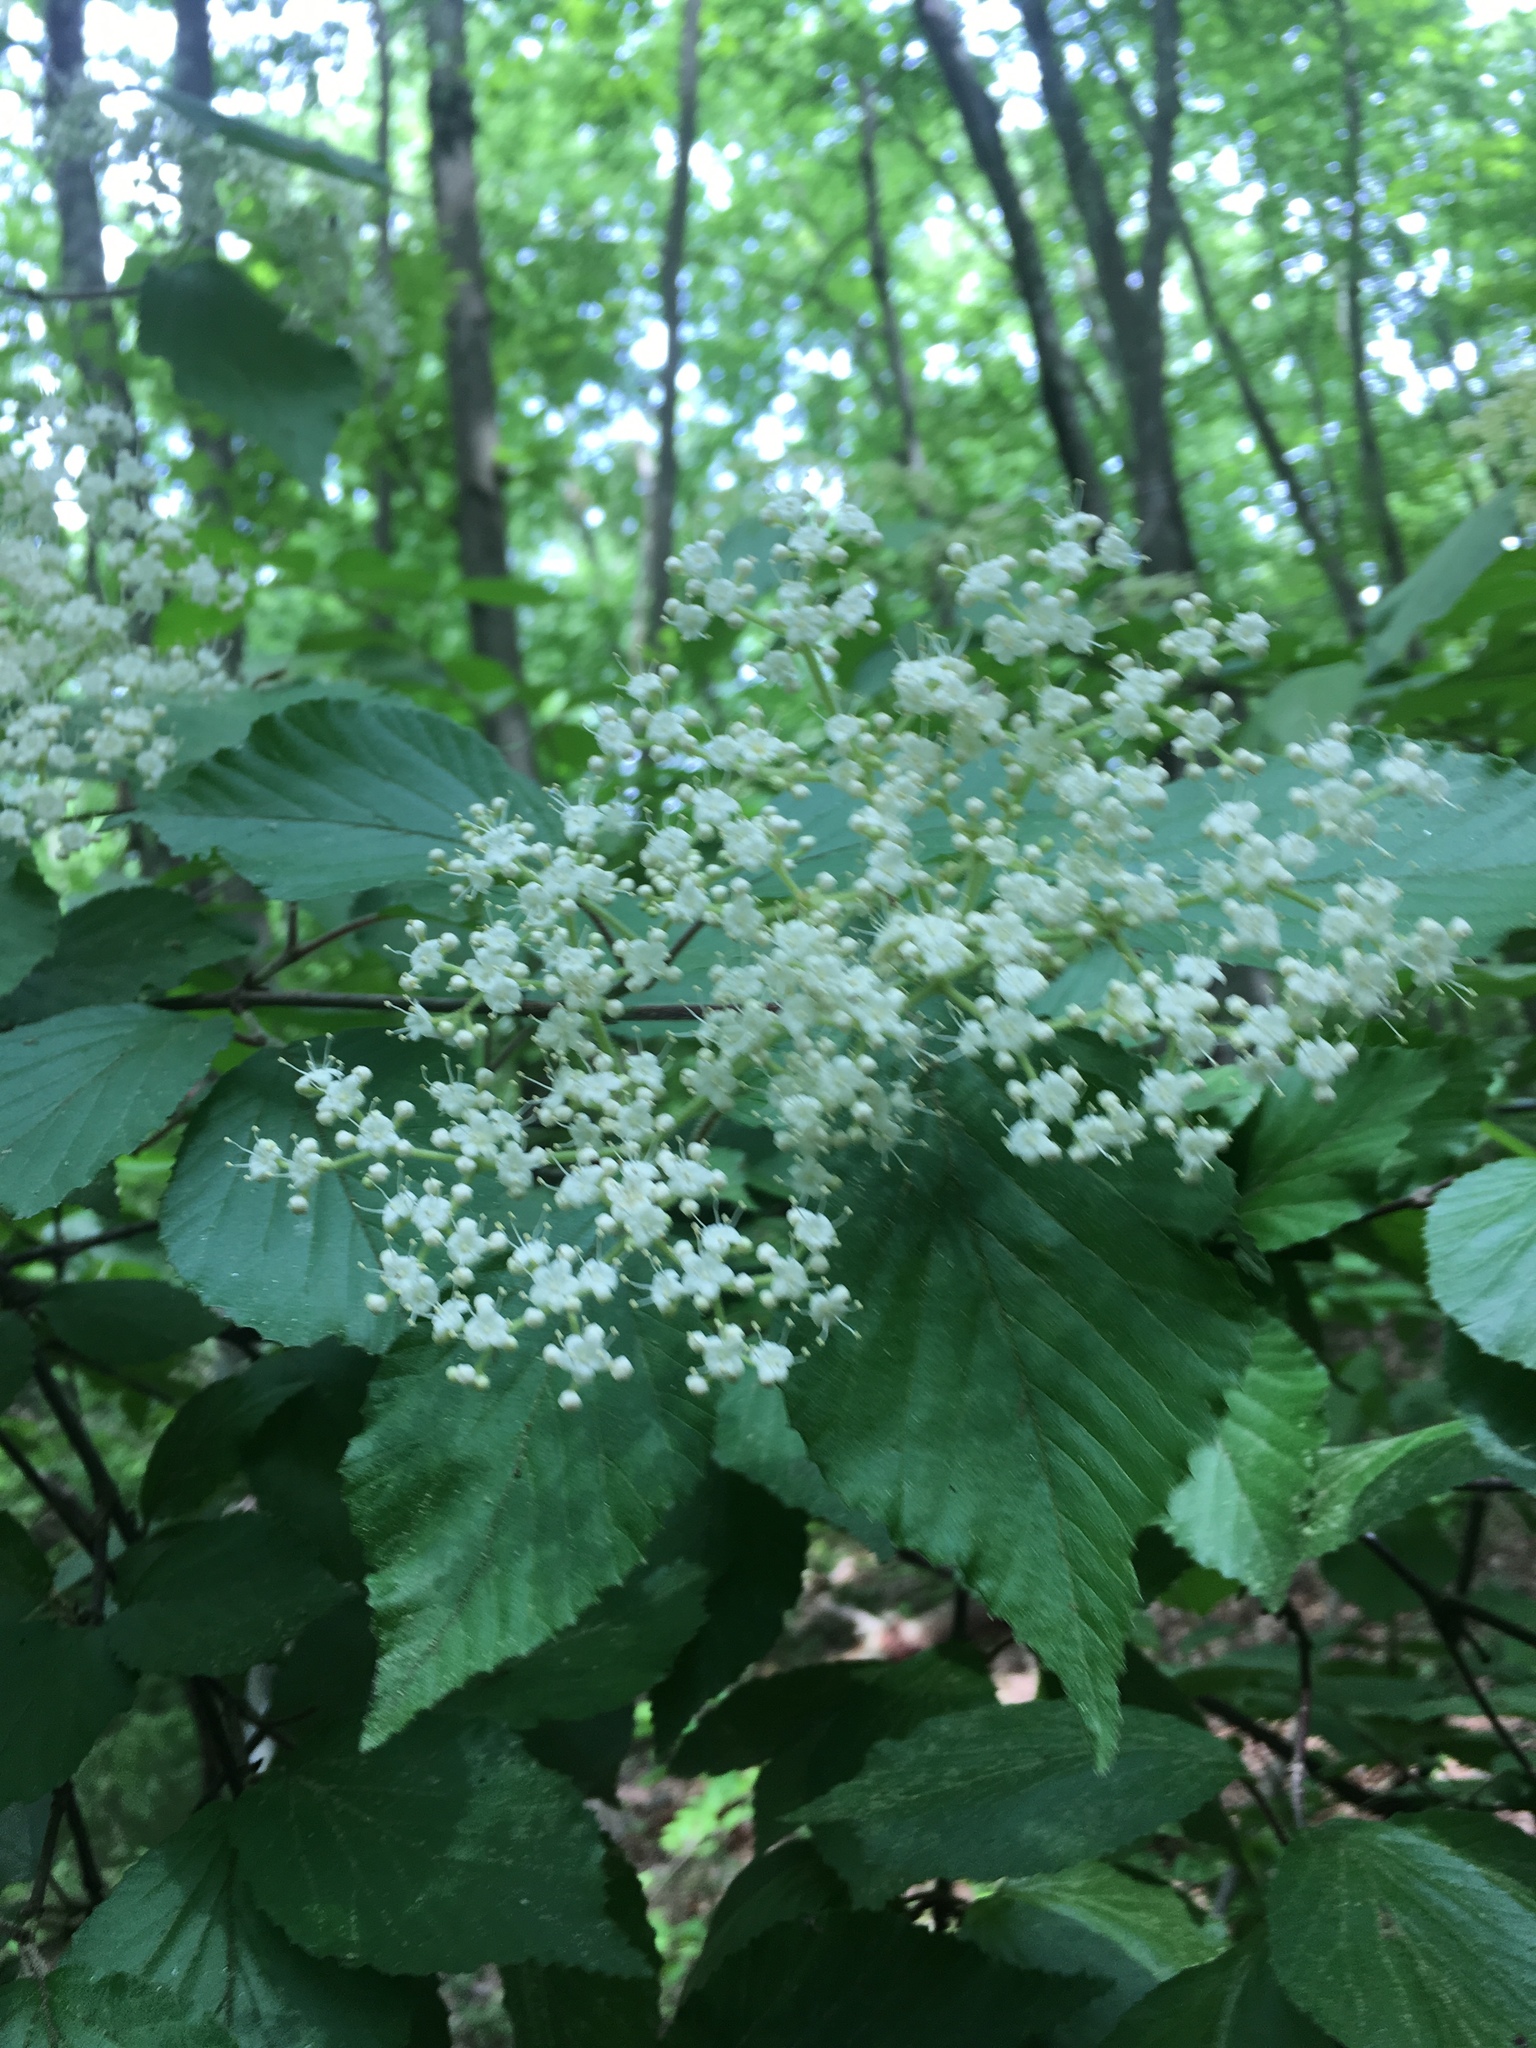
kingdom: Plantae
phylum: Tracheophyta
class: Magnoliopsida
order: Dipsacales
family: Viburnaceae
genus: Viburnum
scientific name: Viburnum dilatatum
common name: Linden arrowwood
